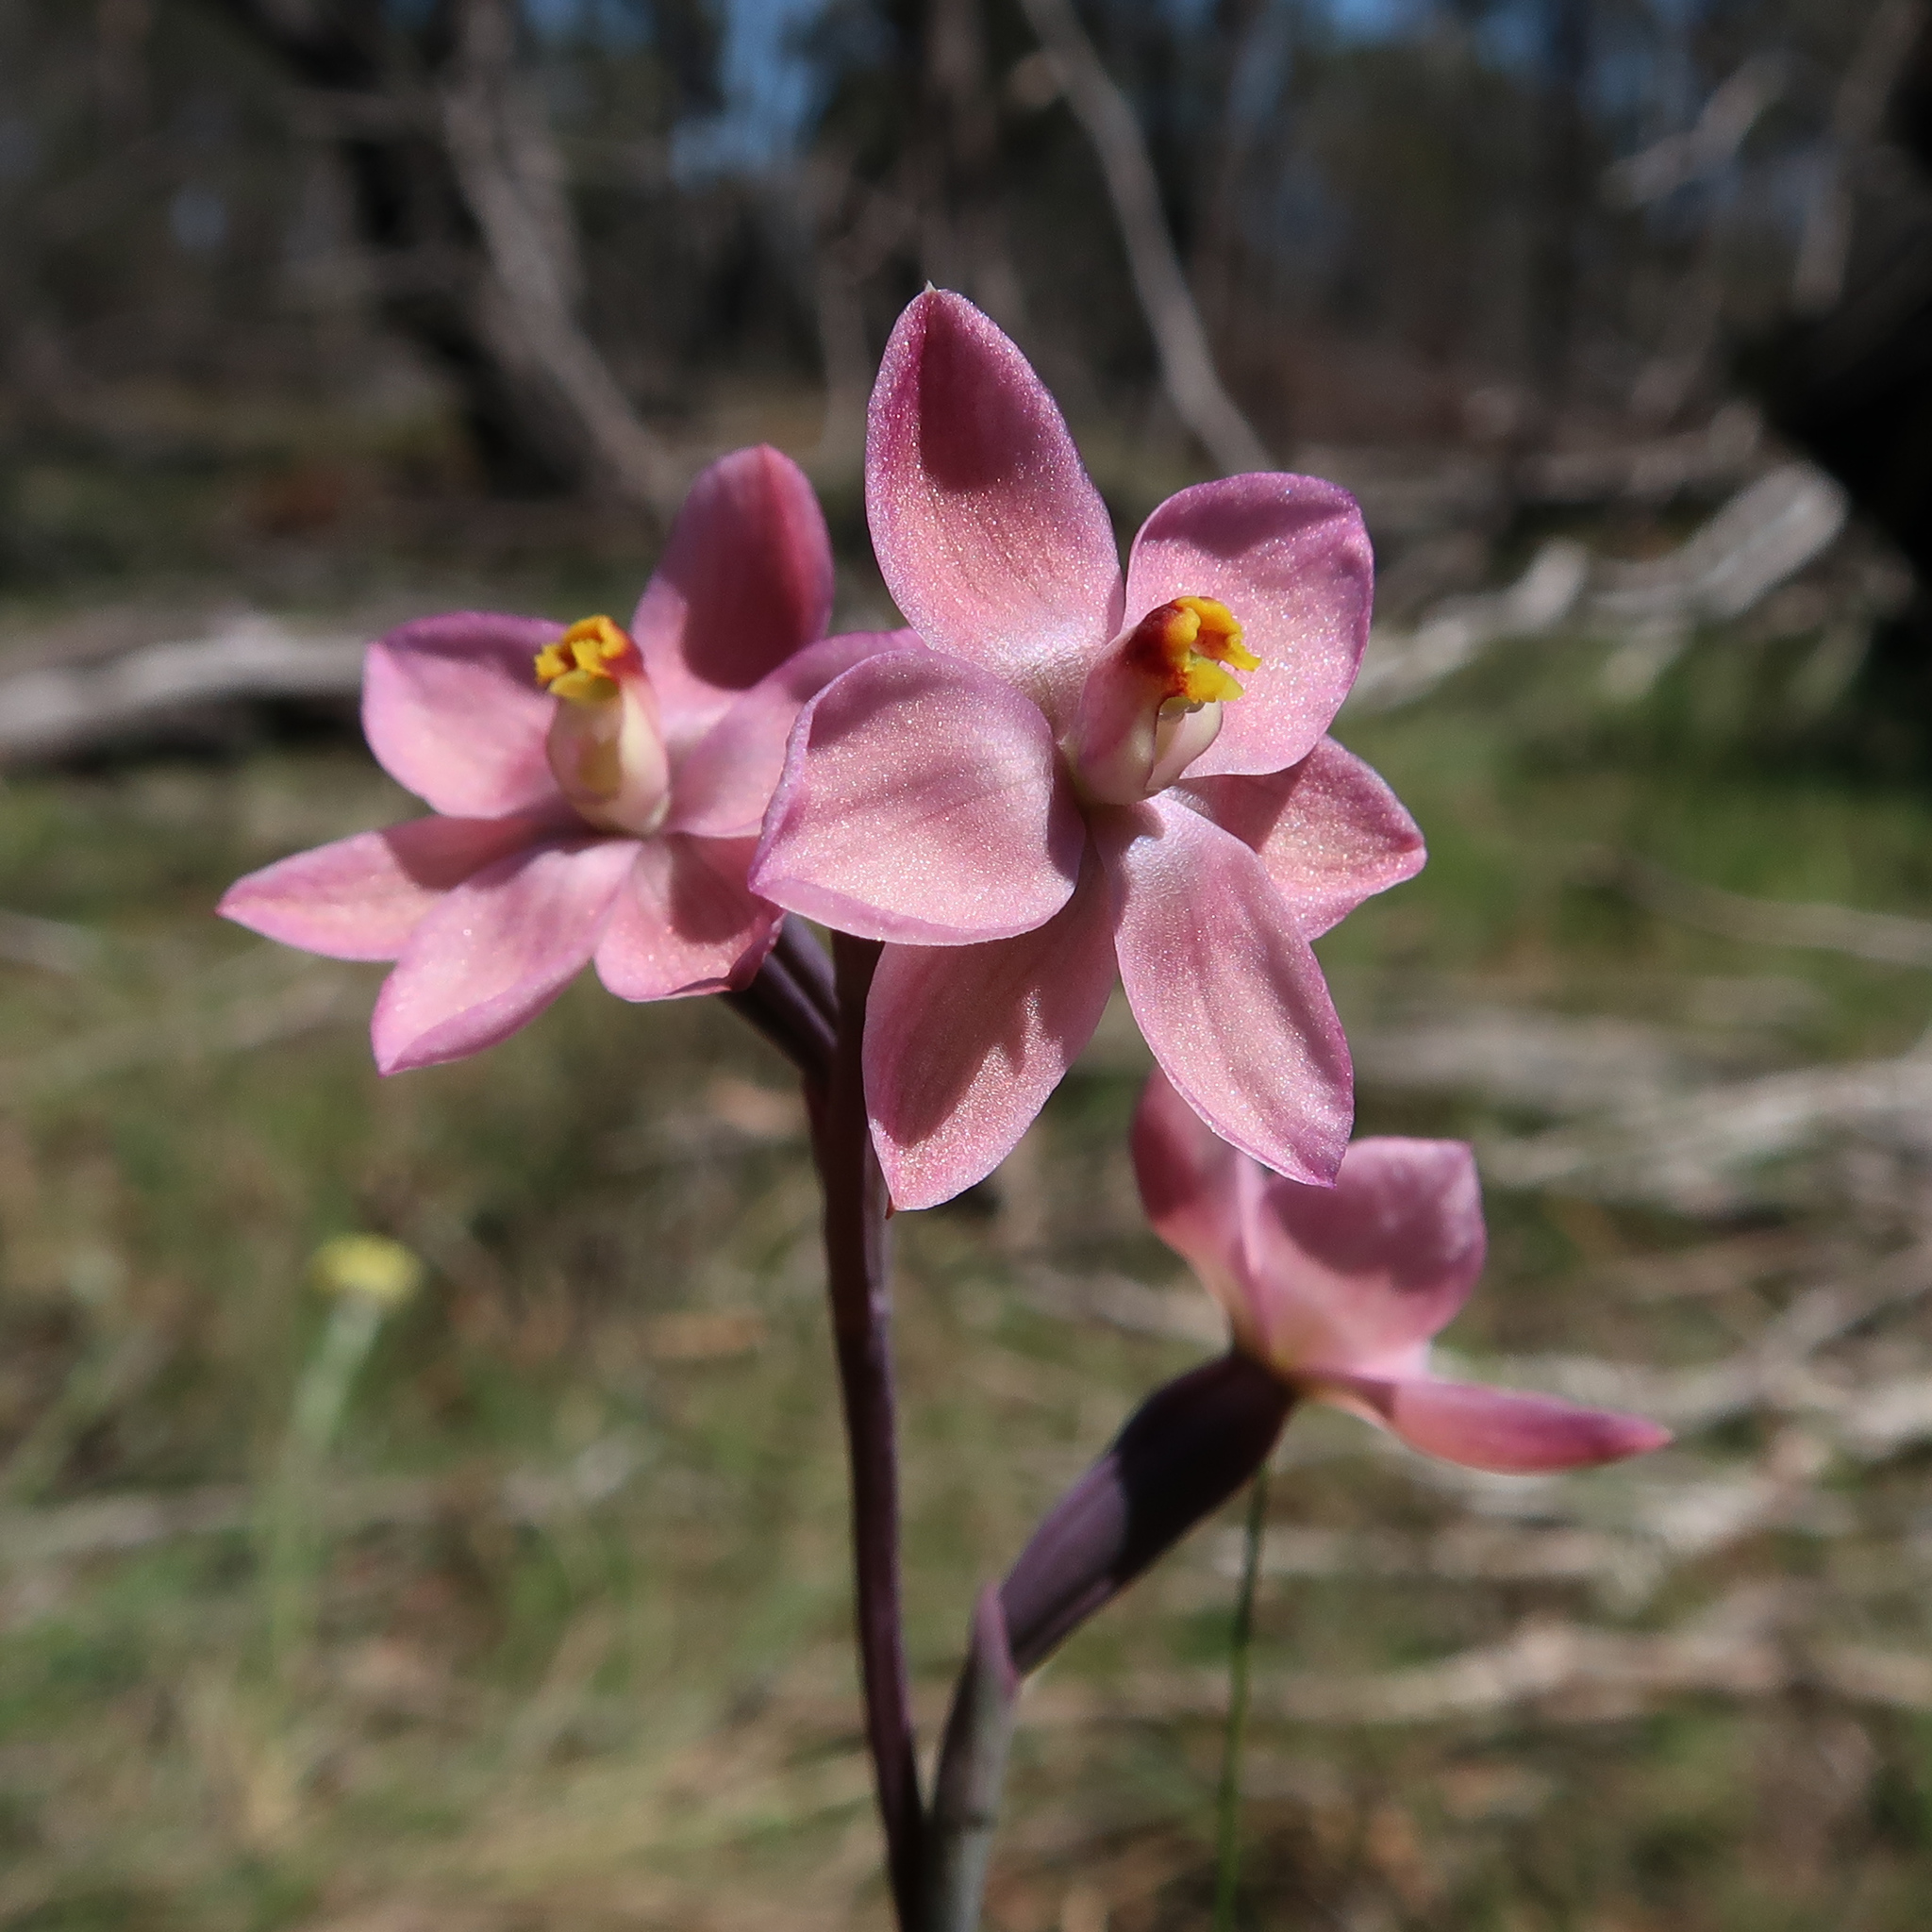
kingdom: Plantae
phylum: Tracheophyta
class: Liliopsida
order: Asparagales
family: Orchidaceae
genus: Thelymitra
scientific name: Thelymitra rubra
